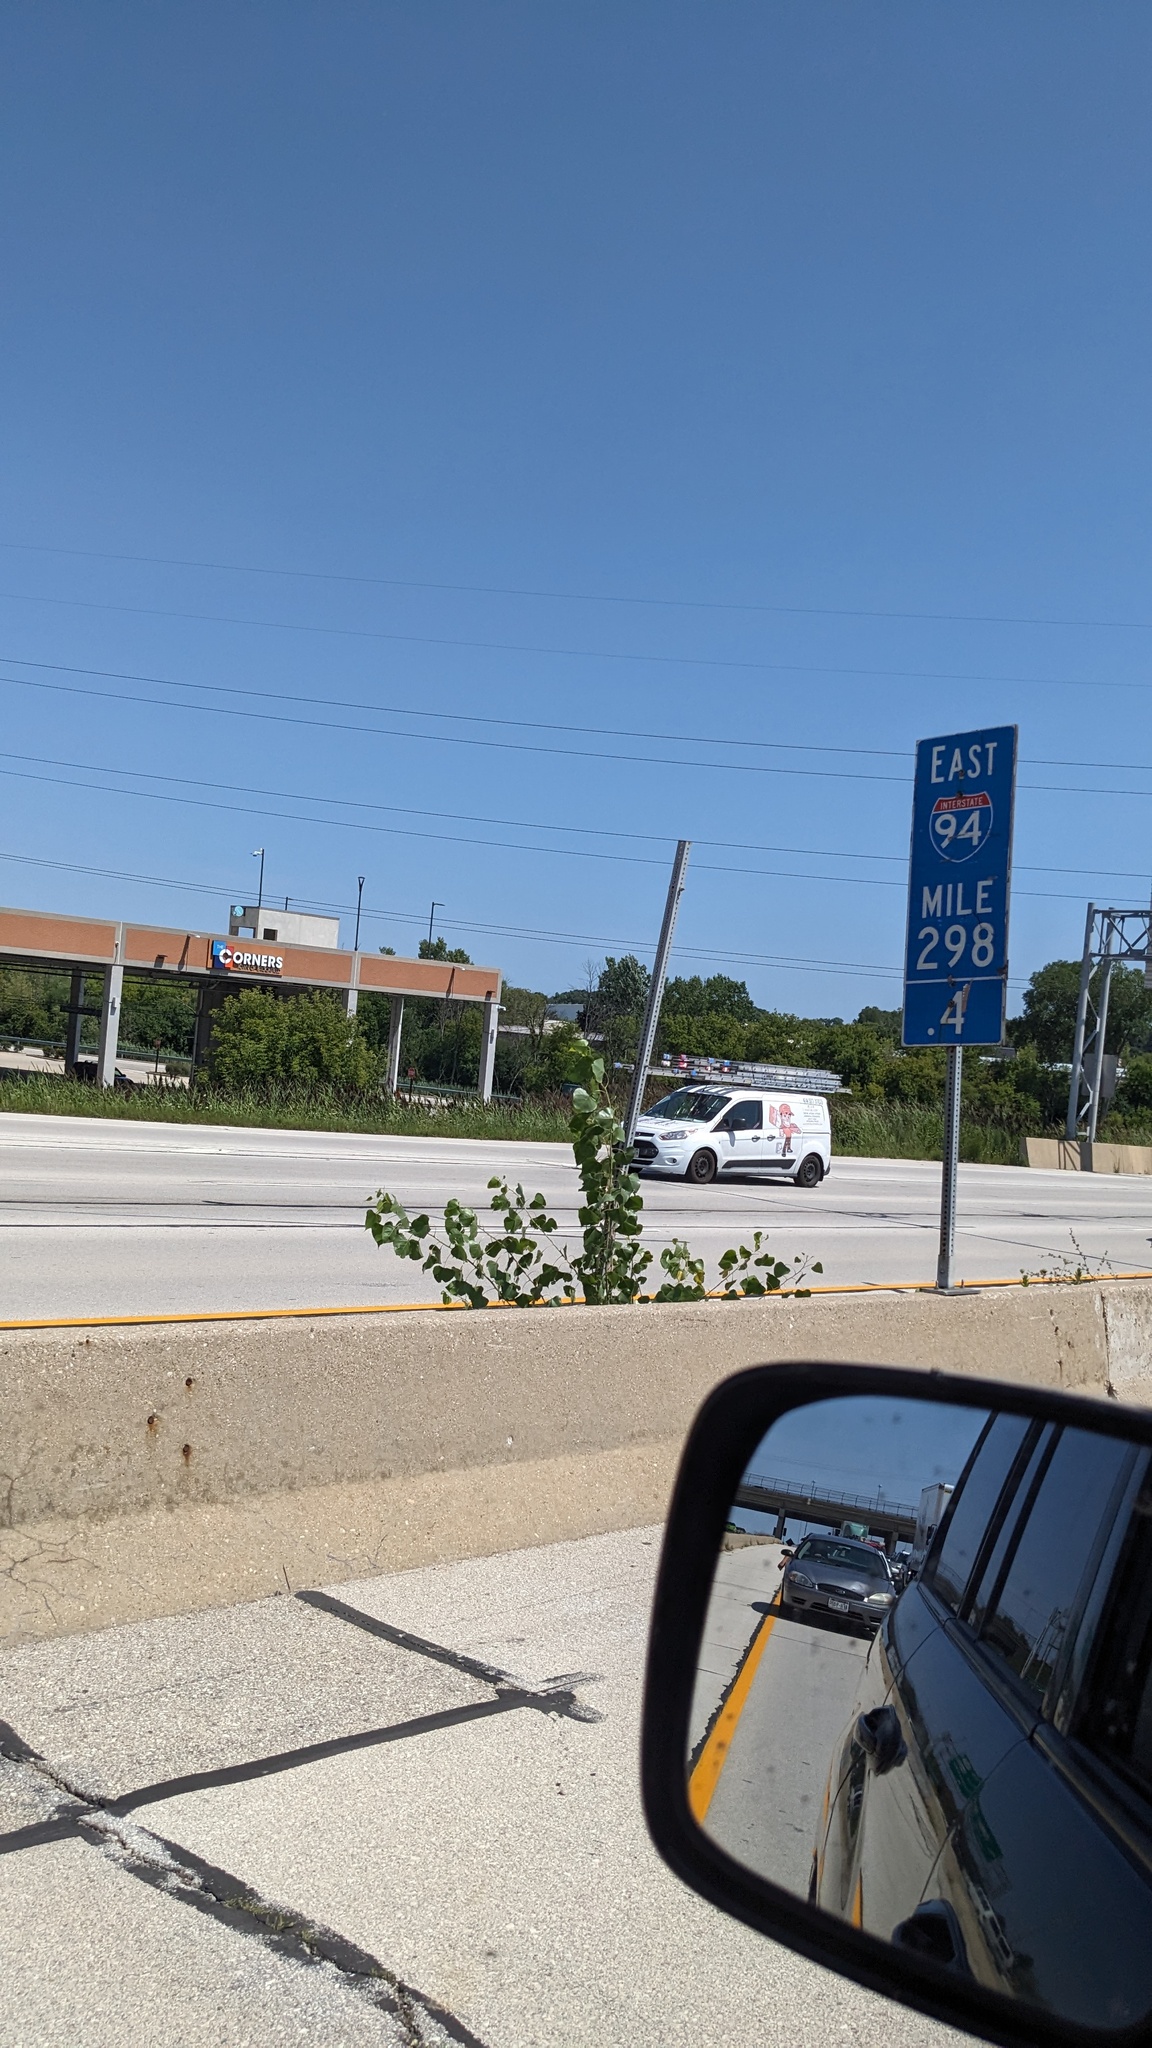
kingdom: Plantae
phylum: Tracheophyta
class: Magnoliopsida
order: Malpighiales
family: Salicaceae
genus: Populus
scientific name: Populus deltoides
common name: Eastern cottonwood
